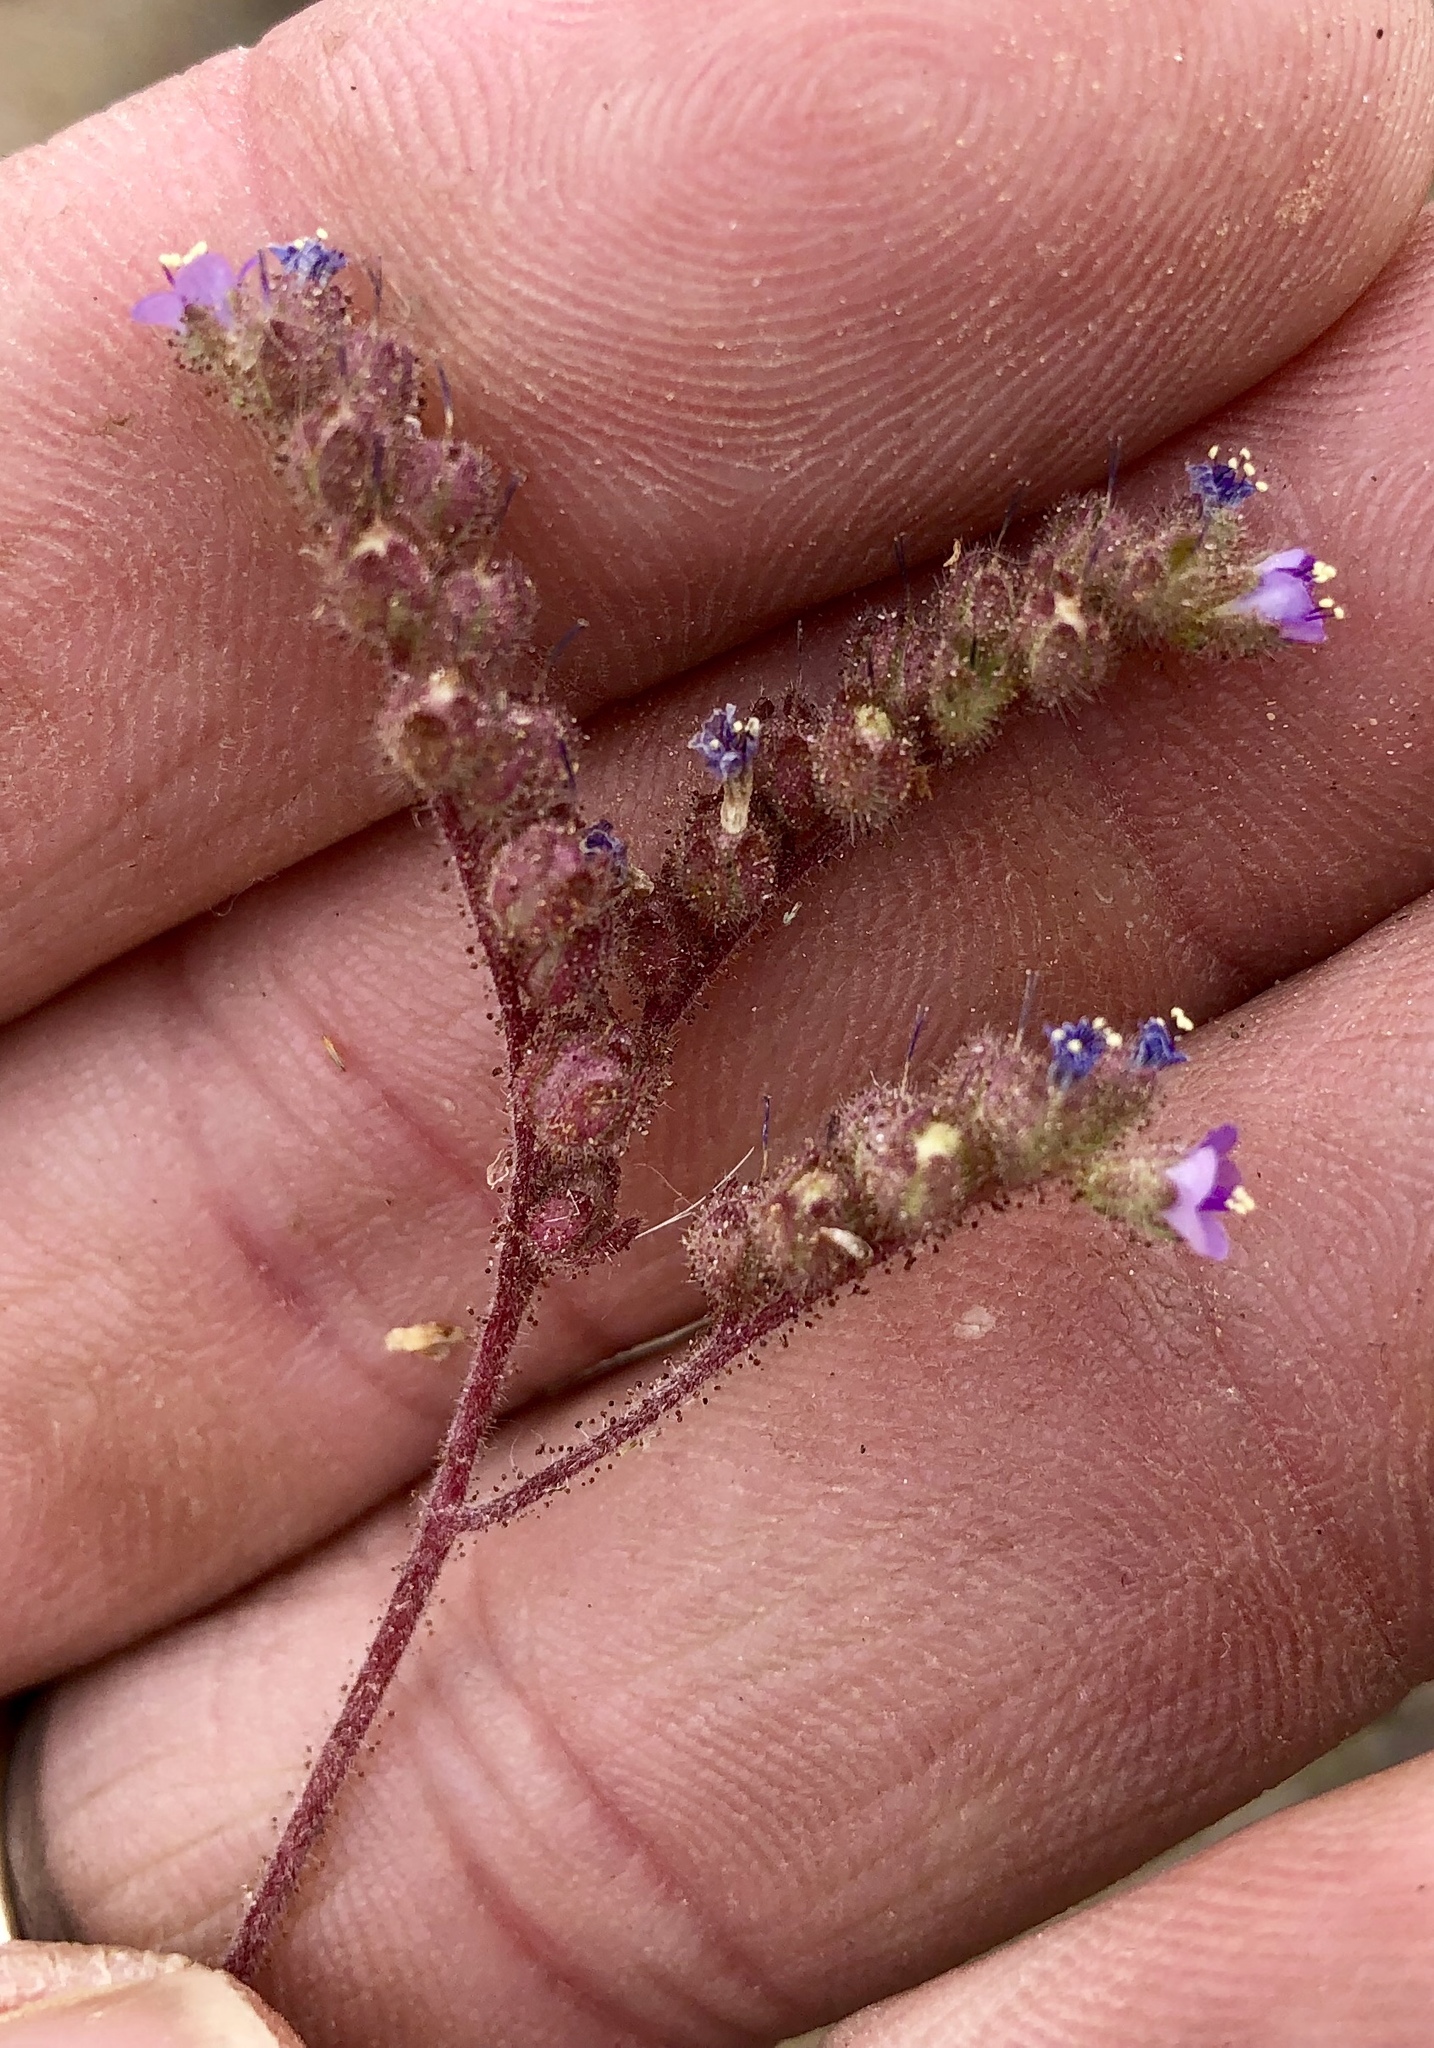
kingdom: Plantae
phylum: Tracheophyta
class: Magnoliopsida
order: Boraginales
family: Hydrophyllaceae
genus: Phacelia
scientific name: Phacelia coerulea
